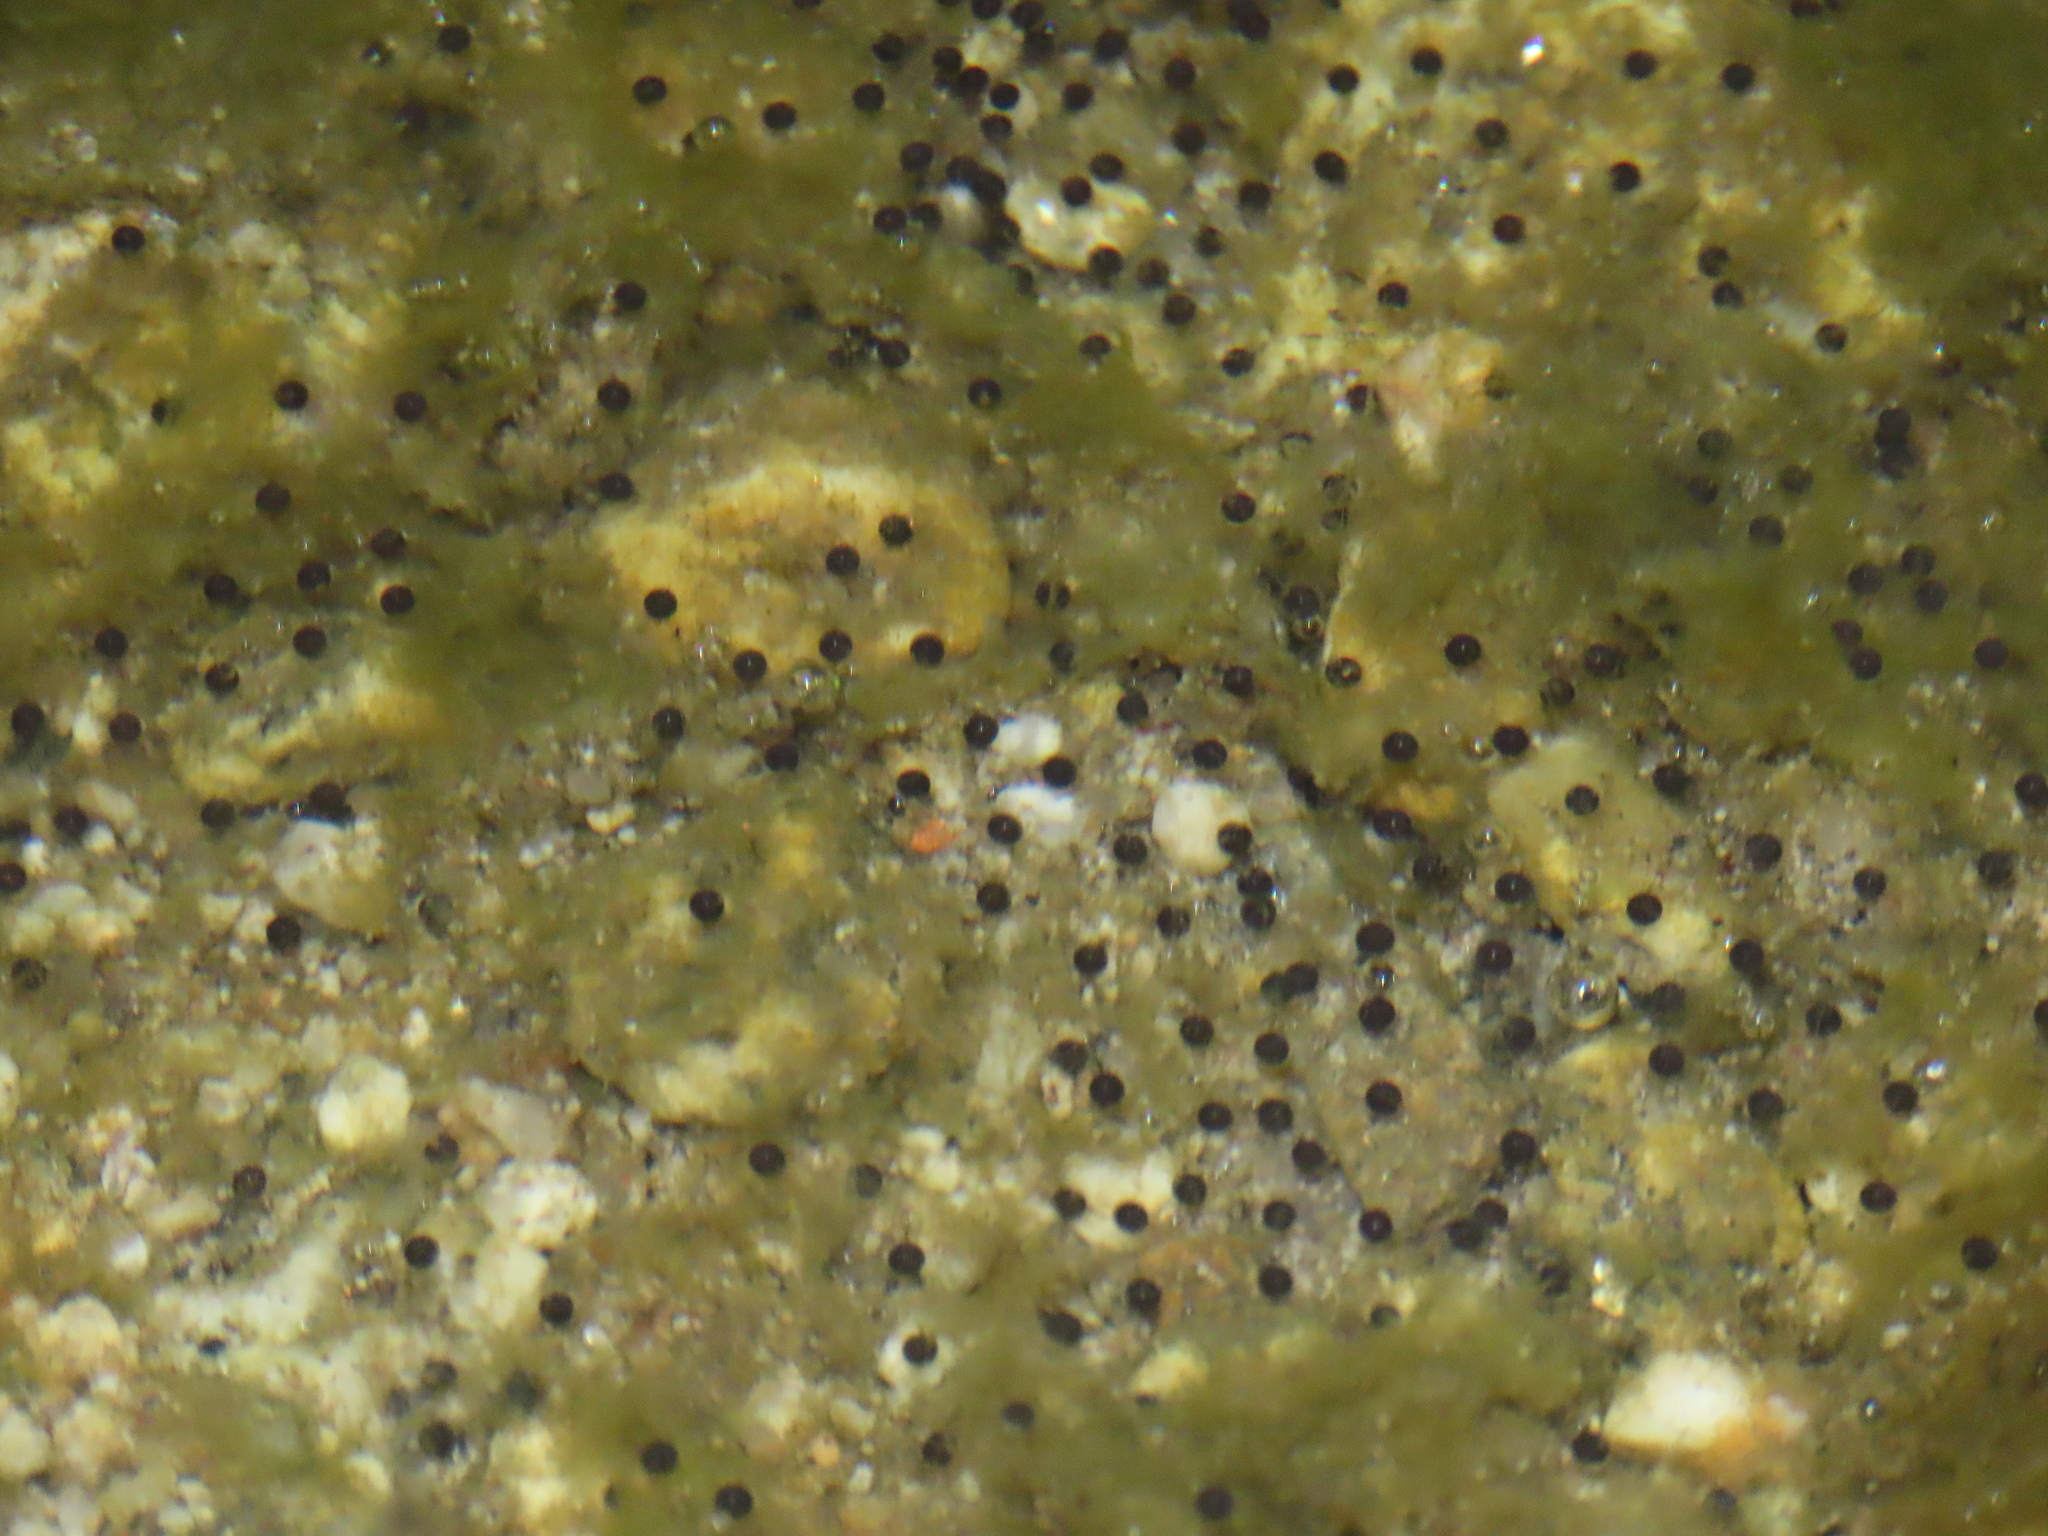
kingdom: Animalia
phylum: Chordata
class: Amphibia
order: Anura
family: Bufonidae
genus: Anaxyrus
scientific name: Anaxyrus punctatus
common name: Red-spotted toad
